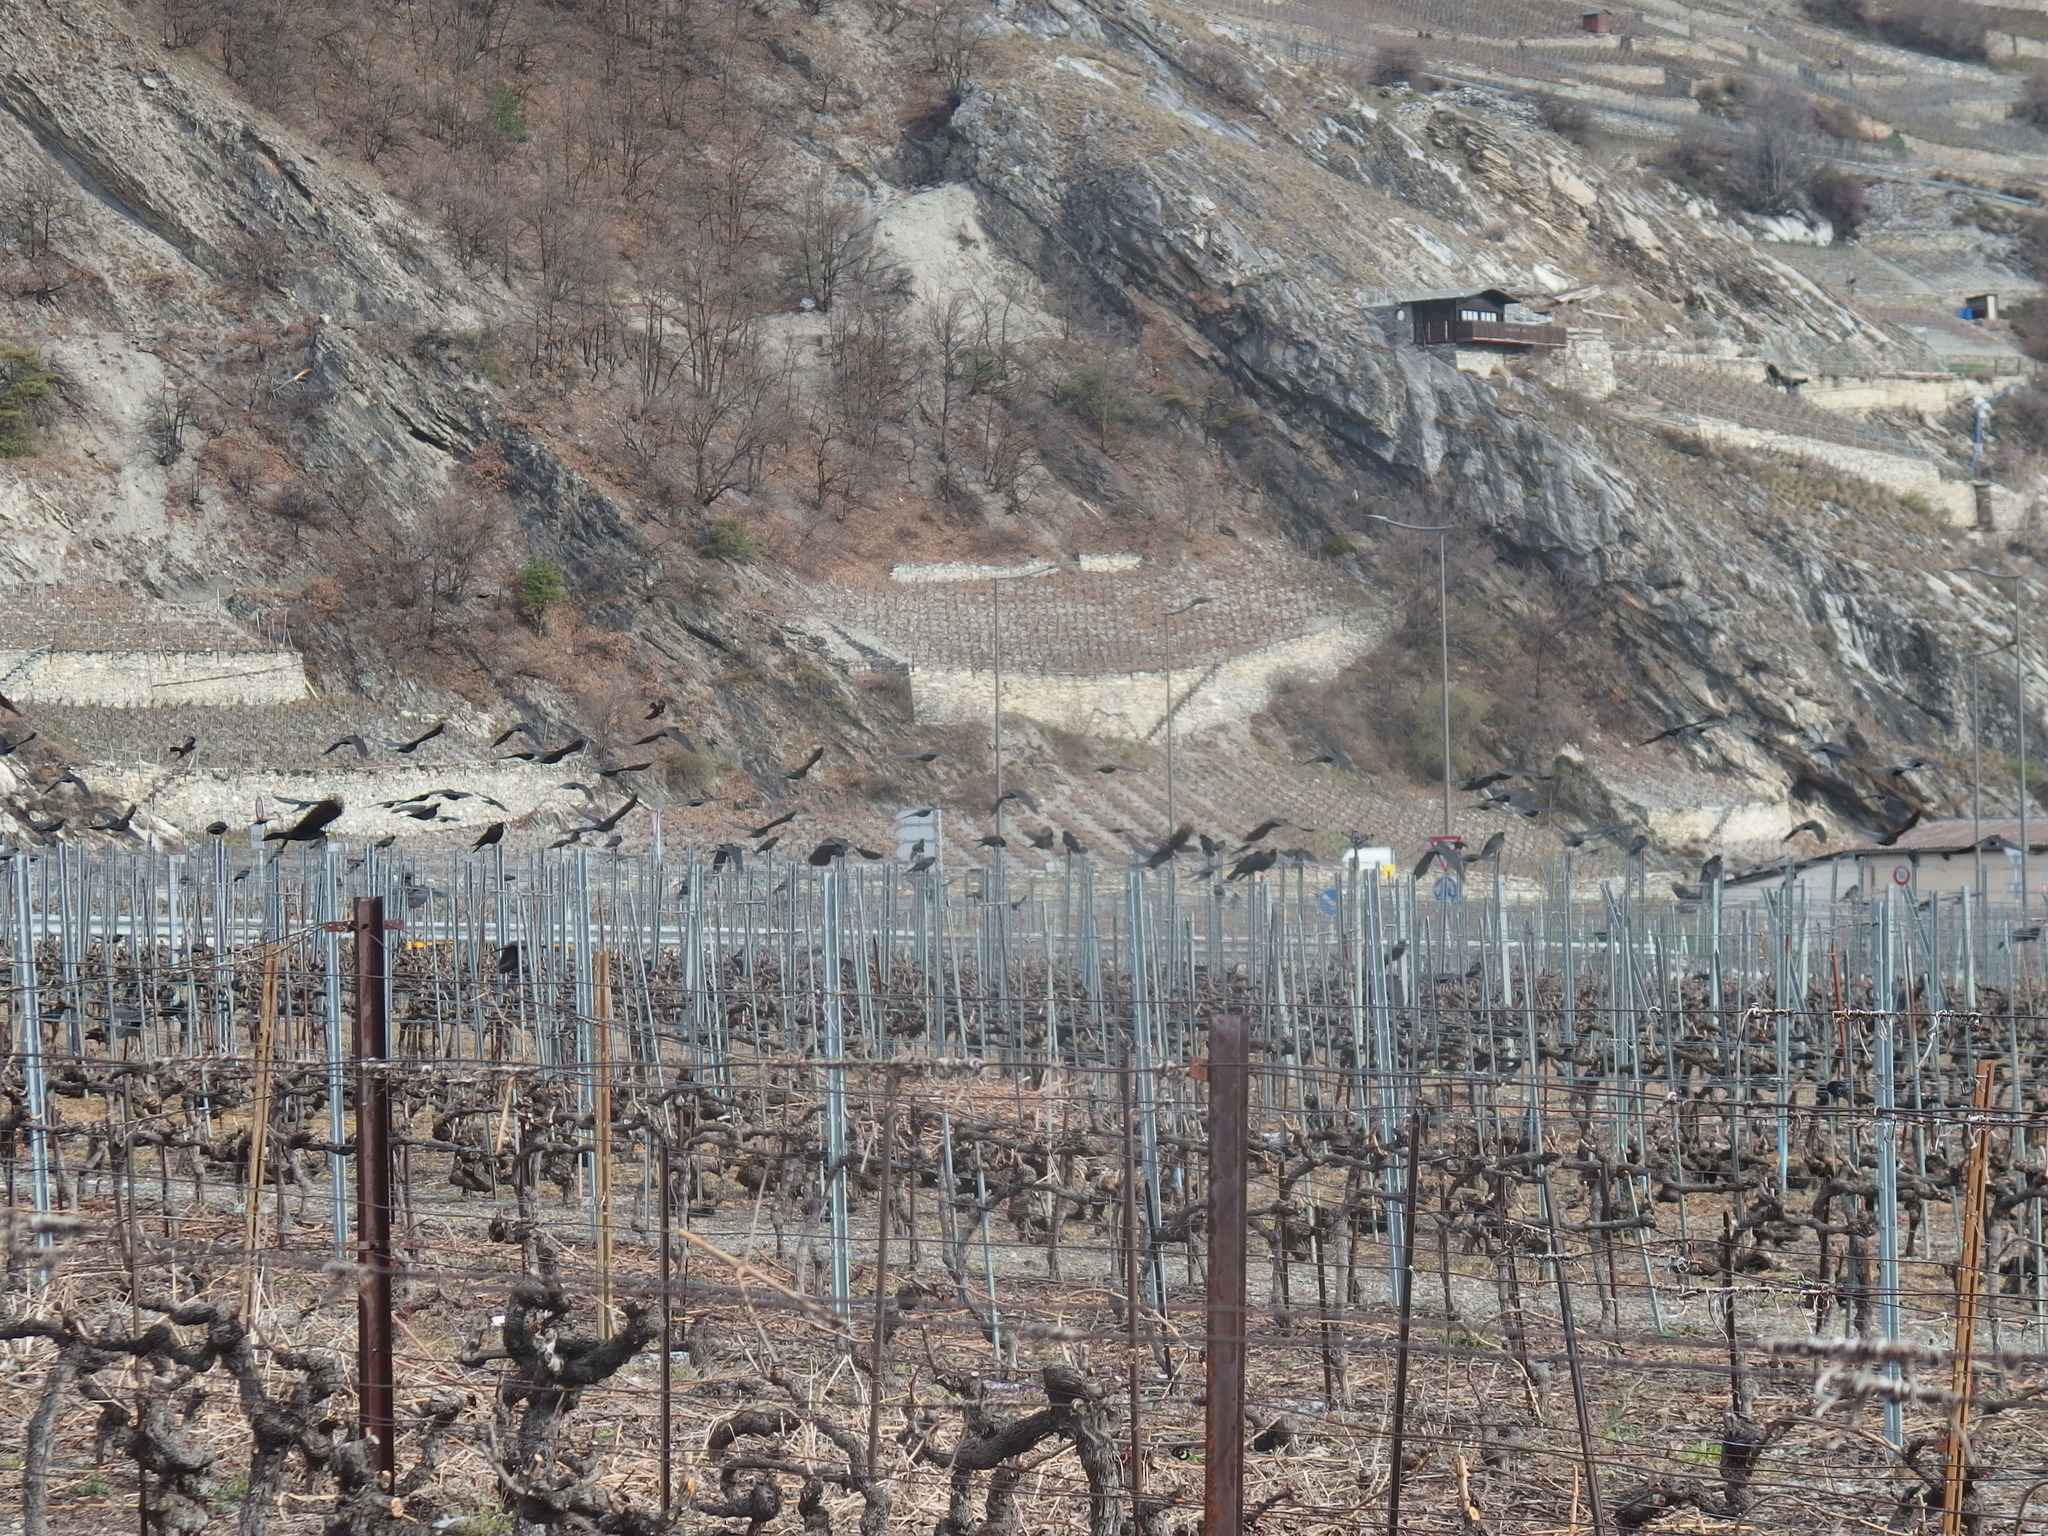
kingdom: Animalia
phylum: Chordata
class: Aves
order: Passeriformes
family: Corvidae
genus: Pyrrhocorax
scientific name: Pyrrhocorax graculus
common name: Alpine chough
